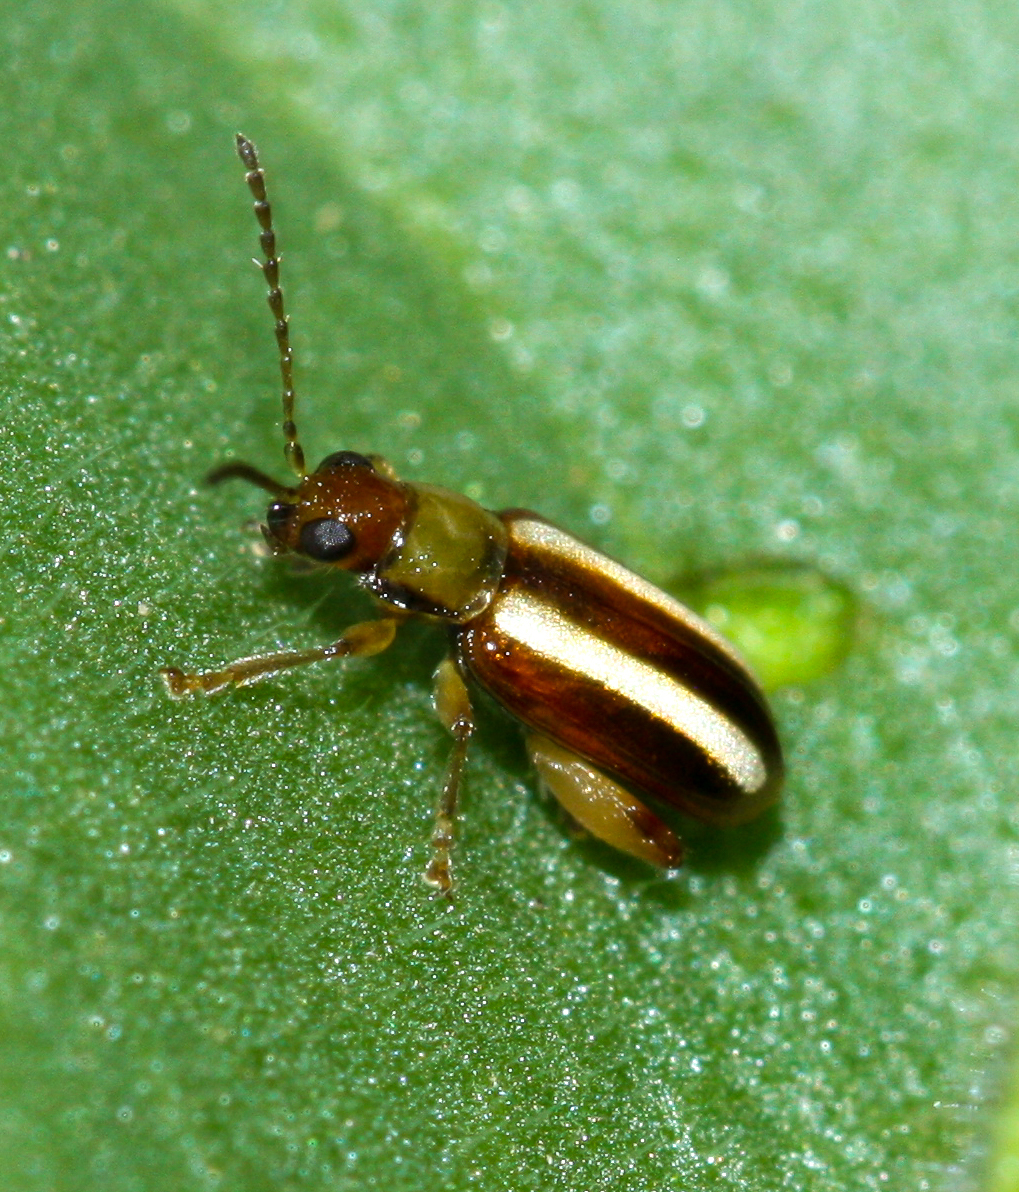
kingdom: Animalia
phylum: Arthropoda
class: Insecta
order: Coleoptera
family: Chrysomelidae
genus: Systena
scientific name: Systena blanda
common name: Palestriped flea beetle
